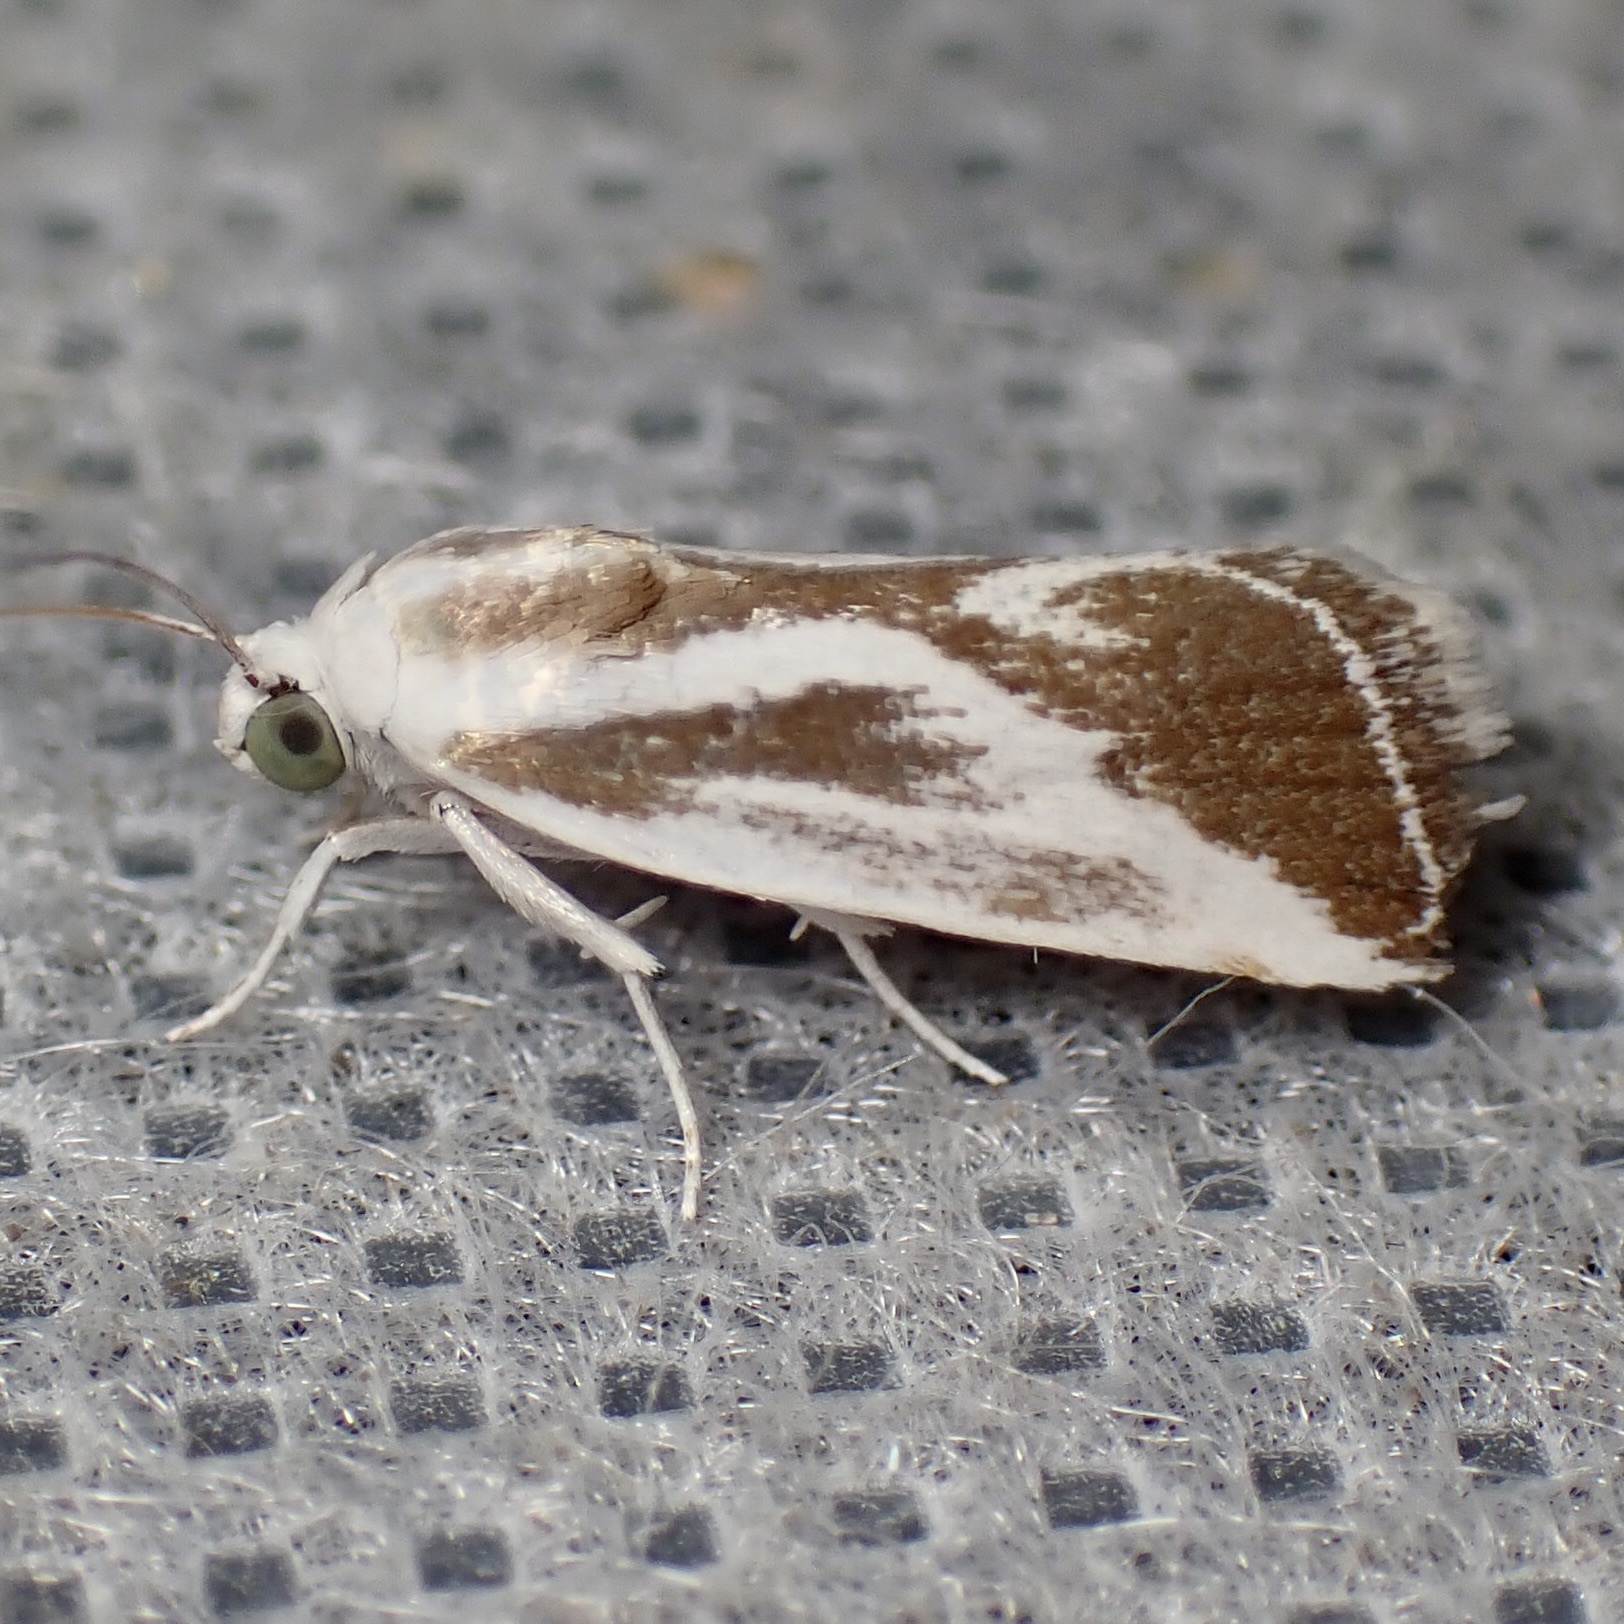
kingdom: Animalia
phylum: Arthropoda
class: Insecta
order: Lepidoptera
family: Noctuidae
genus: Acontia
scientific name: Acontia alata
